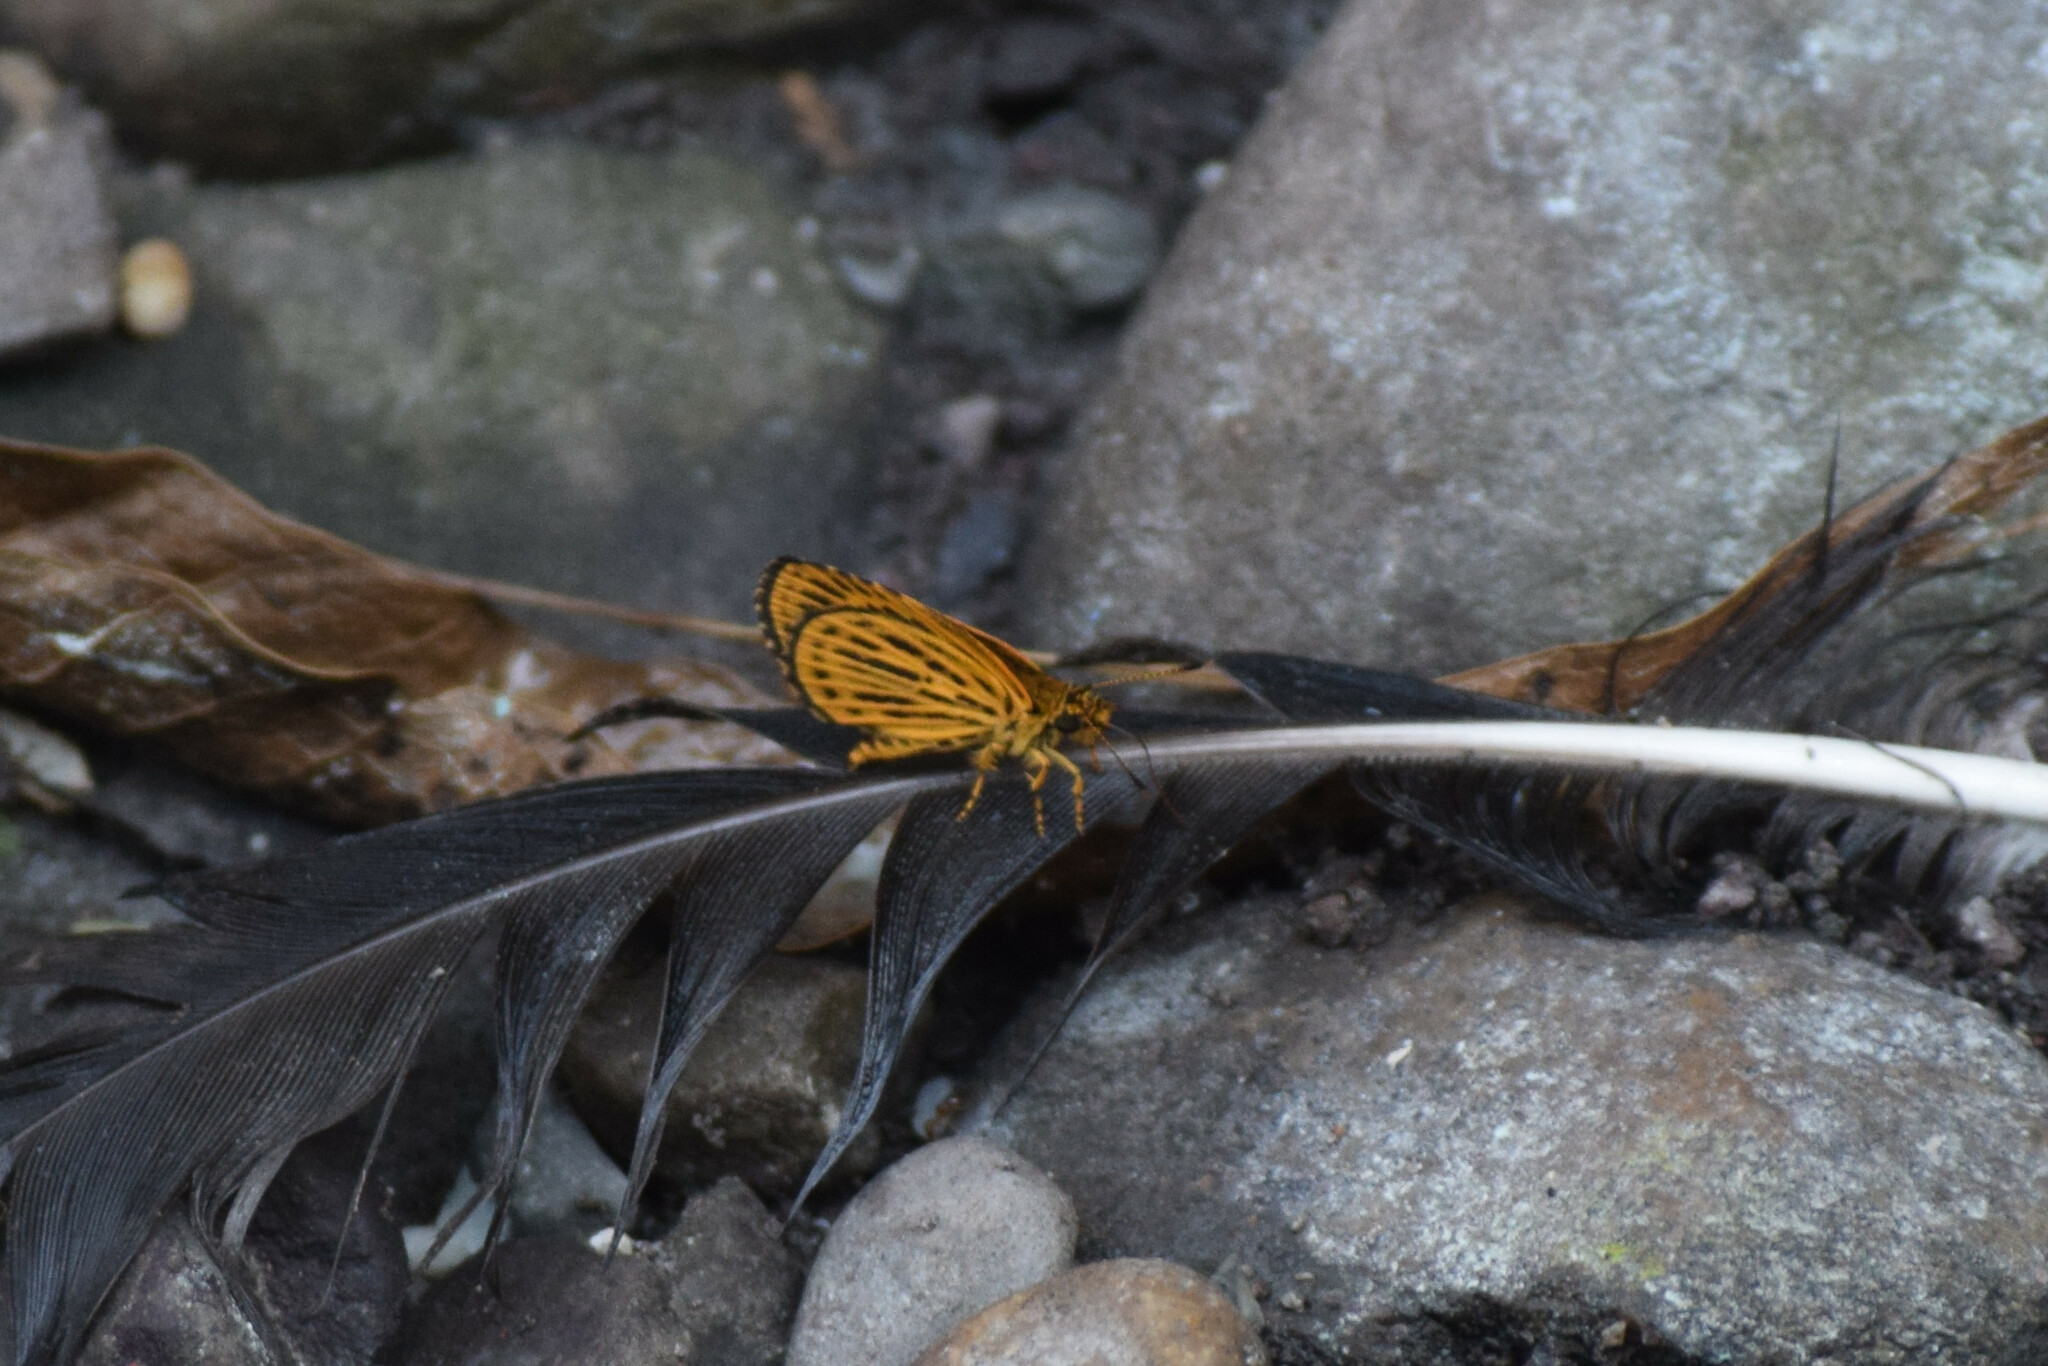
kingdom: Animalia
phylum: Arthropoda
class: Insecta
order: Lepidoptera
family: Hesperiidae
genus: Ampittia
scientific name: Ampittia subvittatus
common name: Tiger hopper
